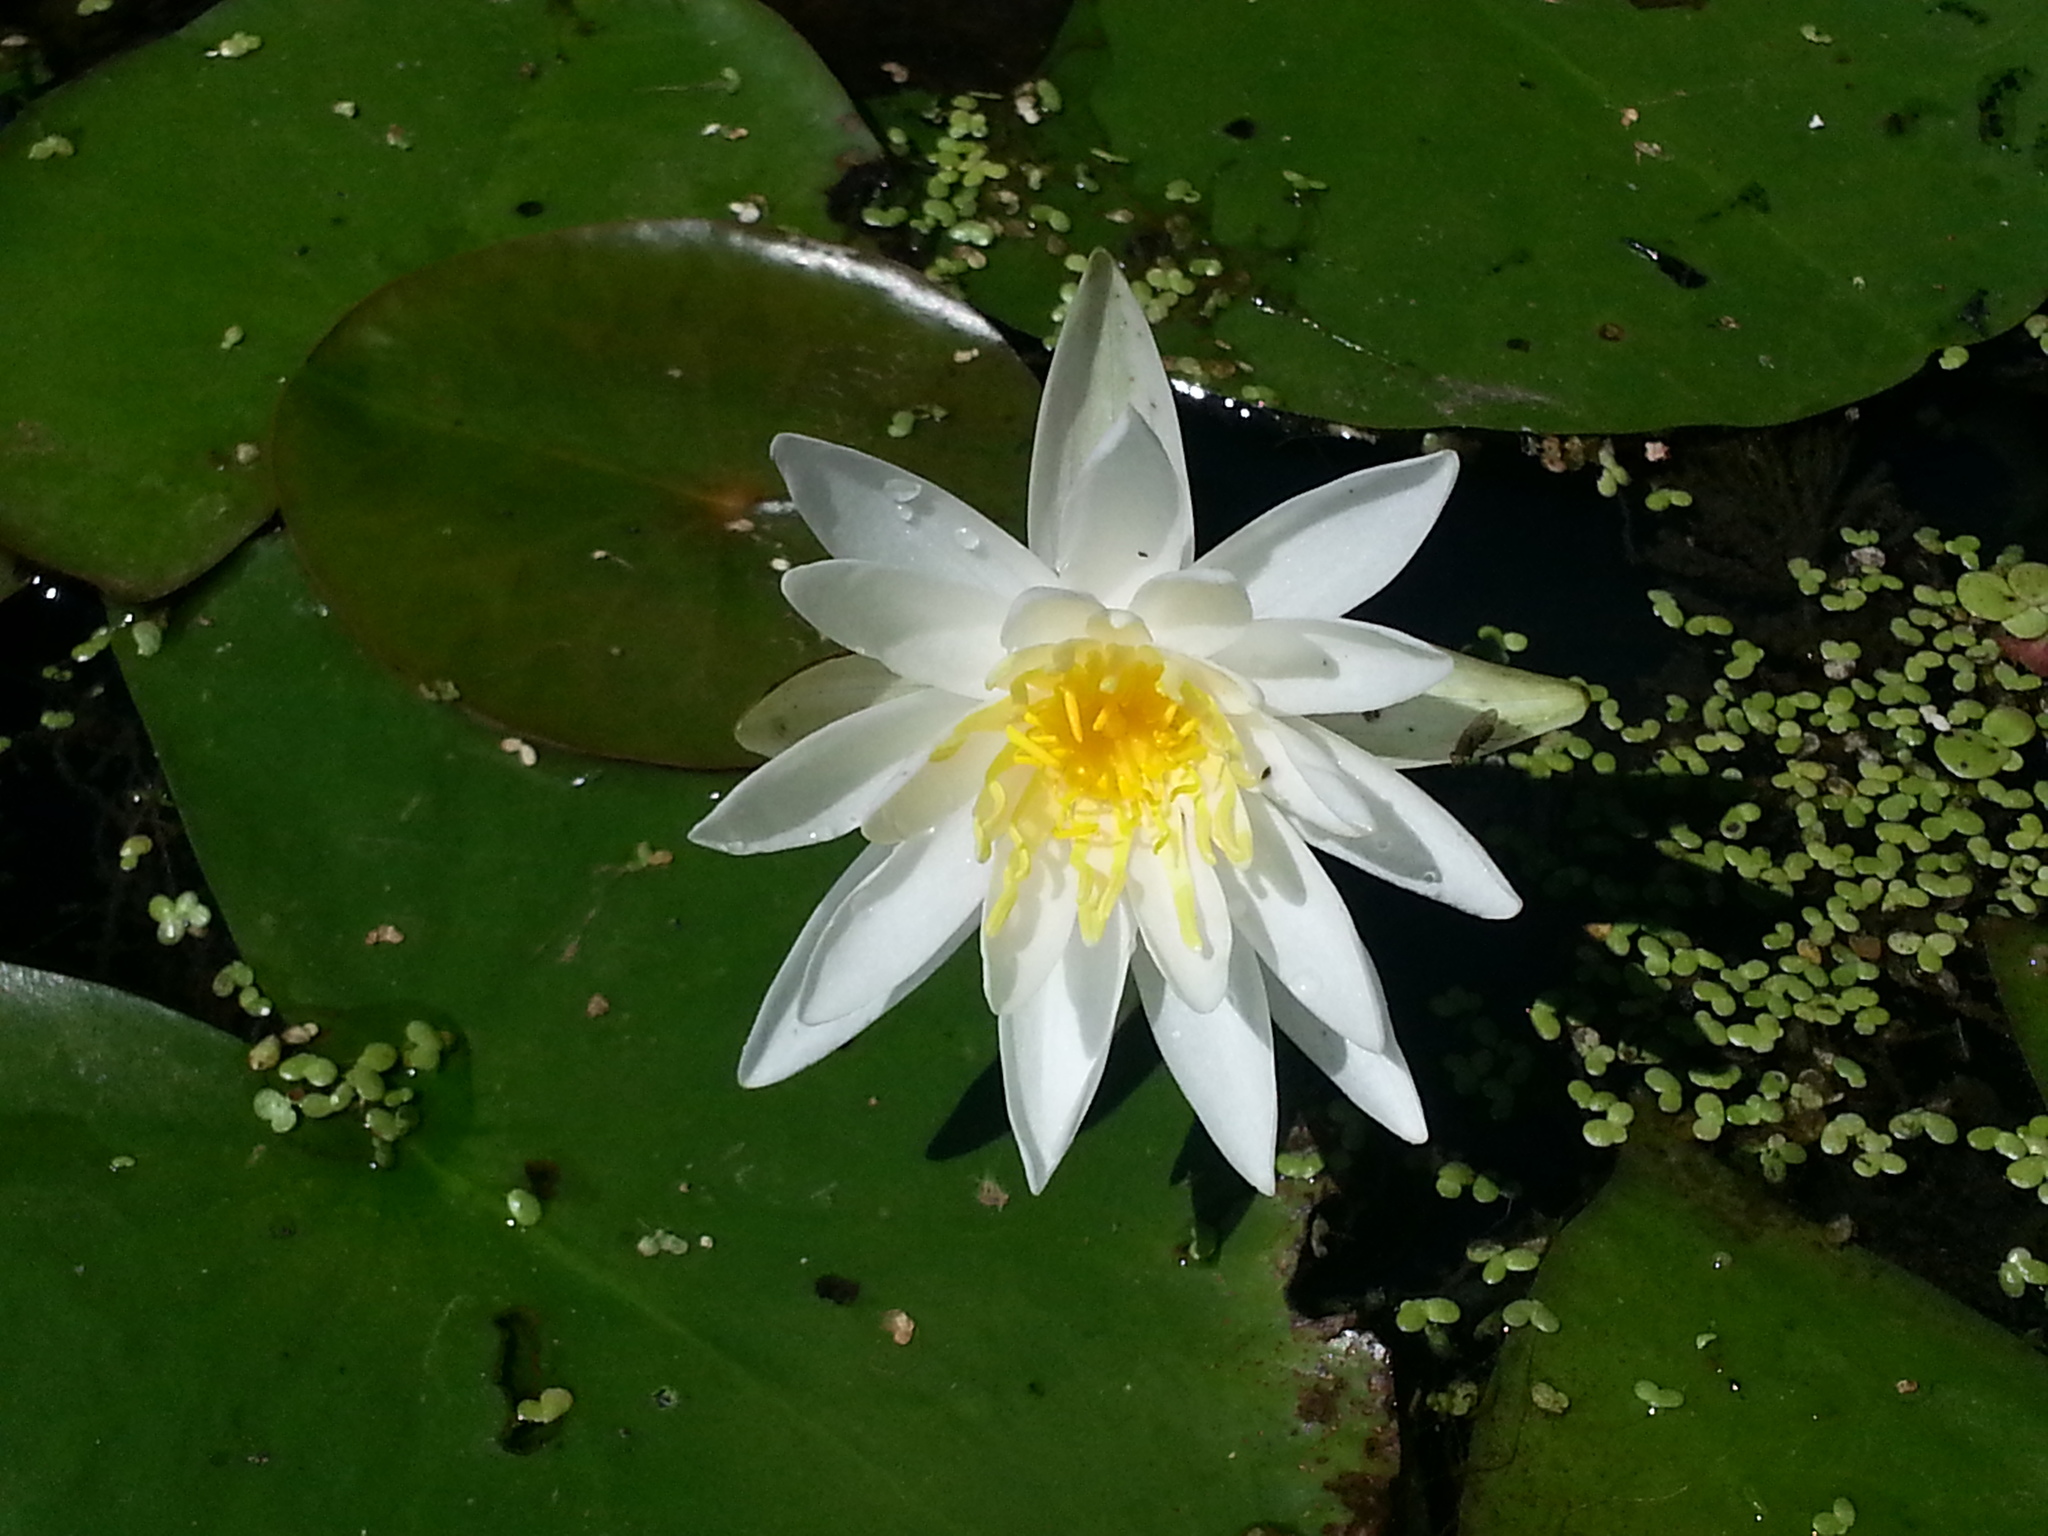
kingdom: Plantae
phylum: Tracheophyta
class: Magnoliopsida
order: Nymphaeales
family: Nymphaeaceae
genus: Nymphaea
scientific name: Nymphaea odorata
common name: Fragrant water-lily
